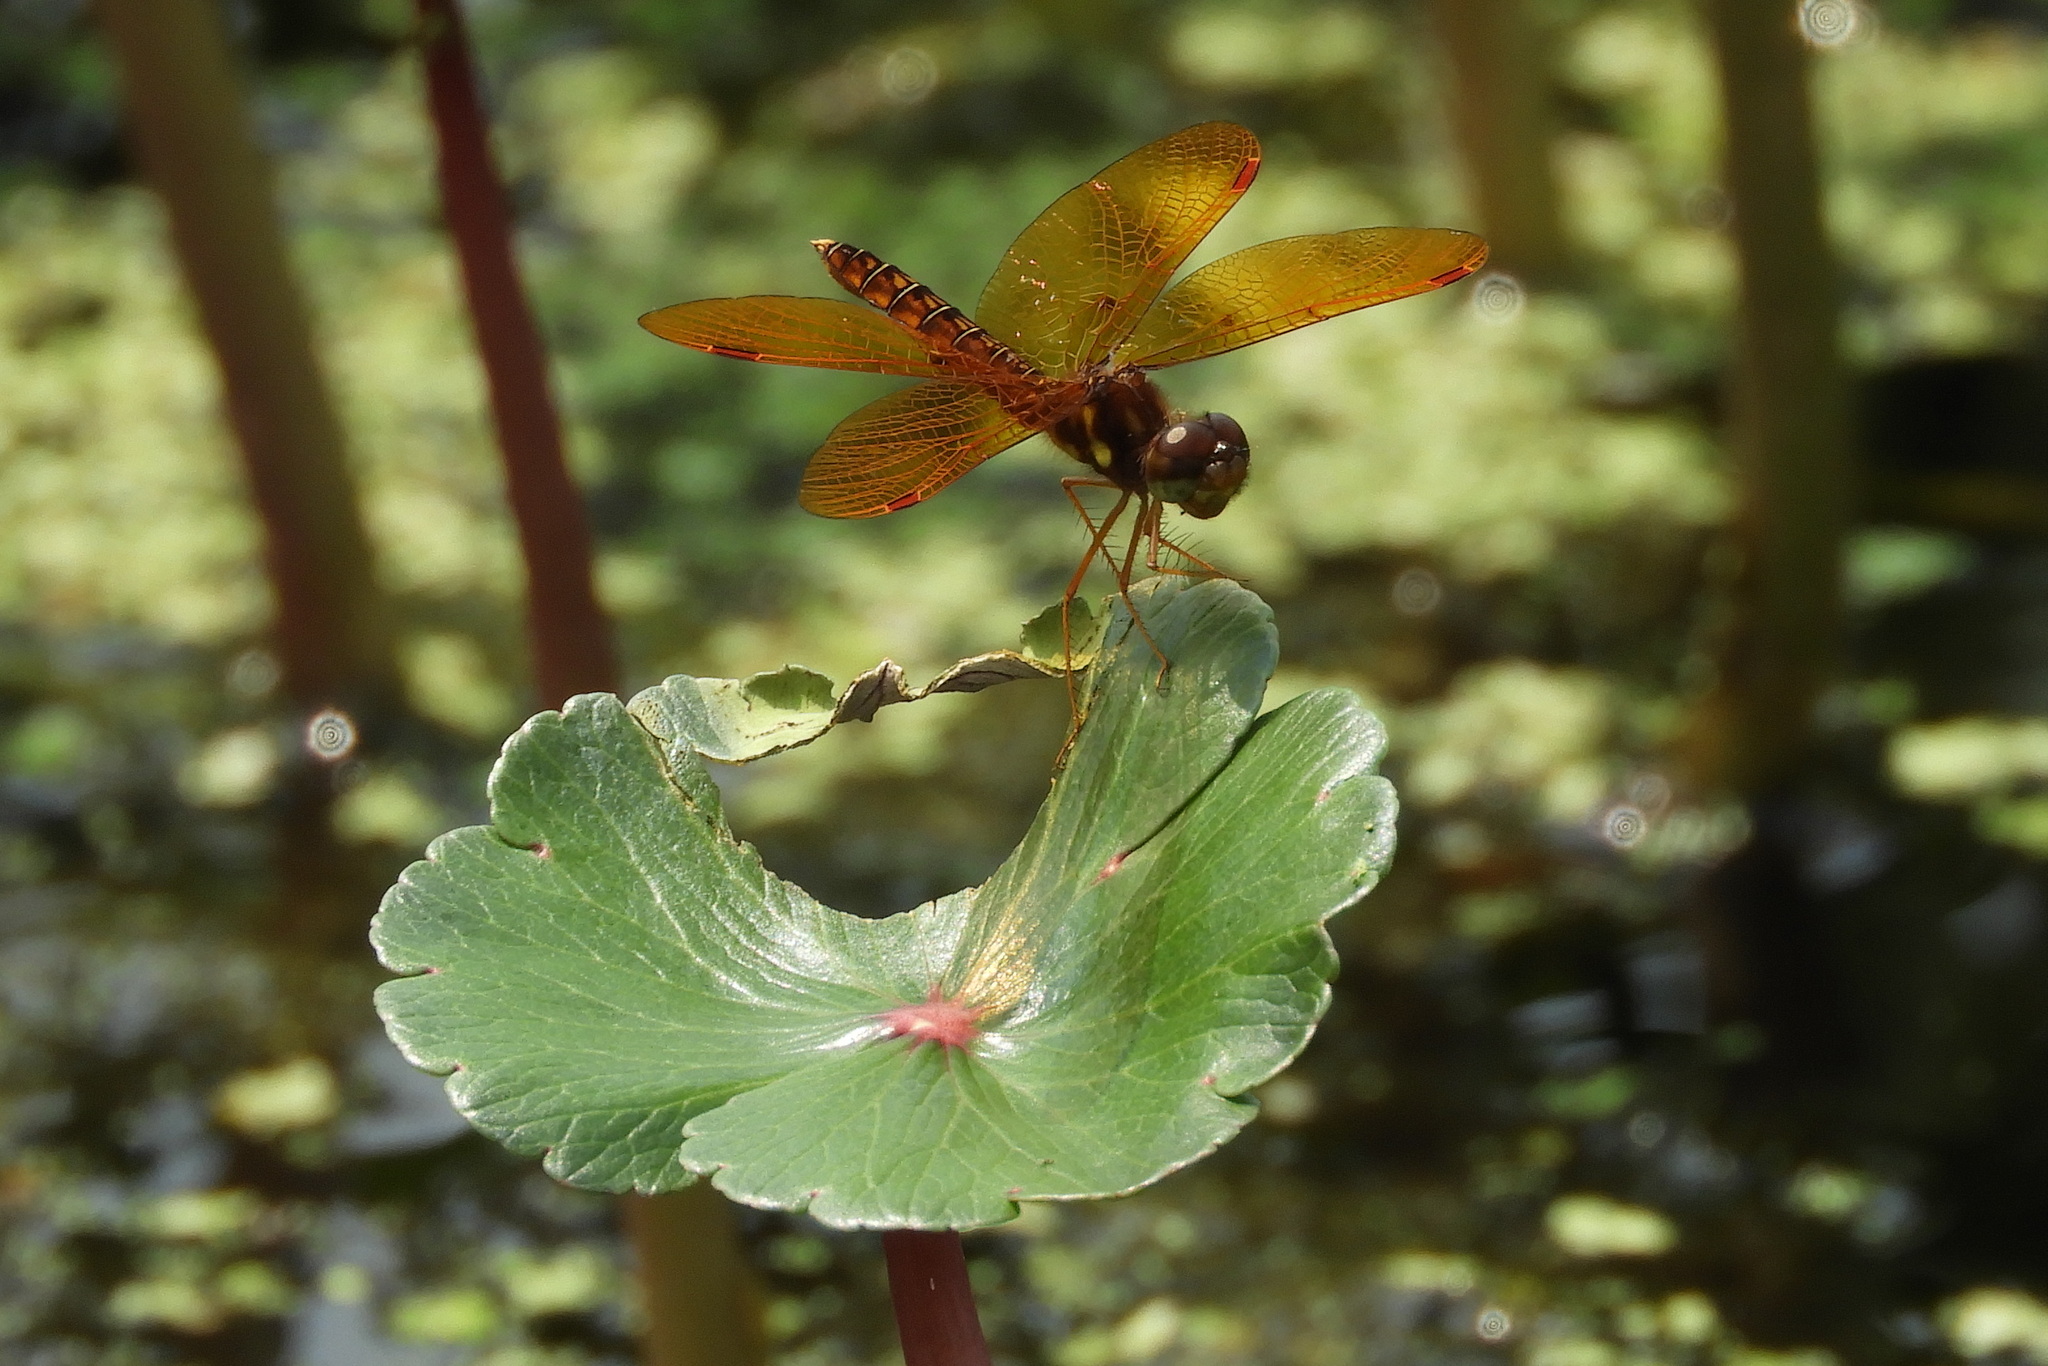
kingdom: Animalia
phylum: Arthropoda
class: Insecta
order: Odonata
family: Libellulidae
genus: Perithemis
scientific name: Perithemis tenera
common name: Eastern amberwing
